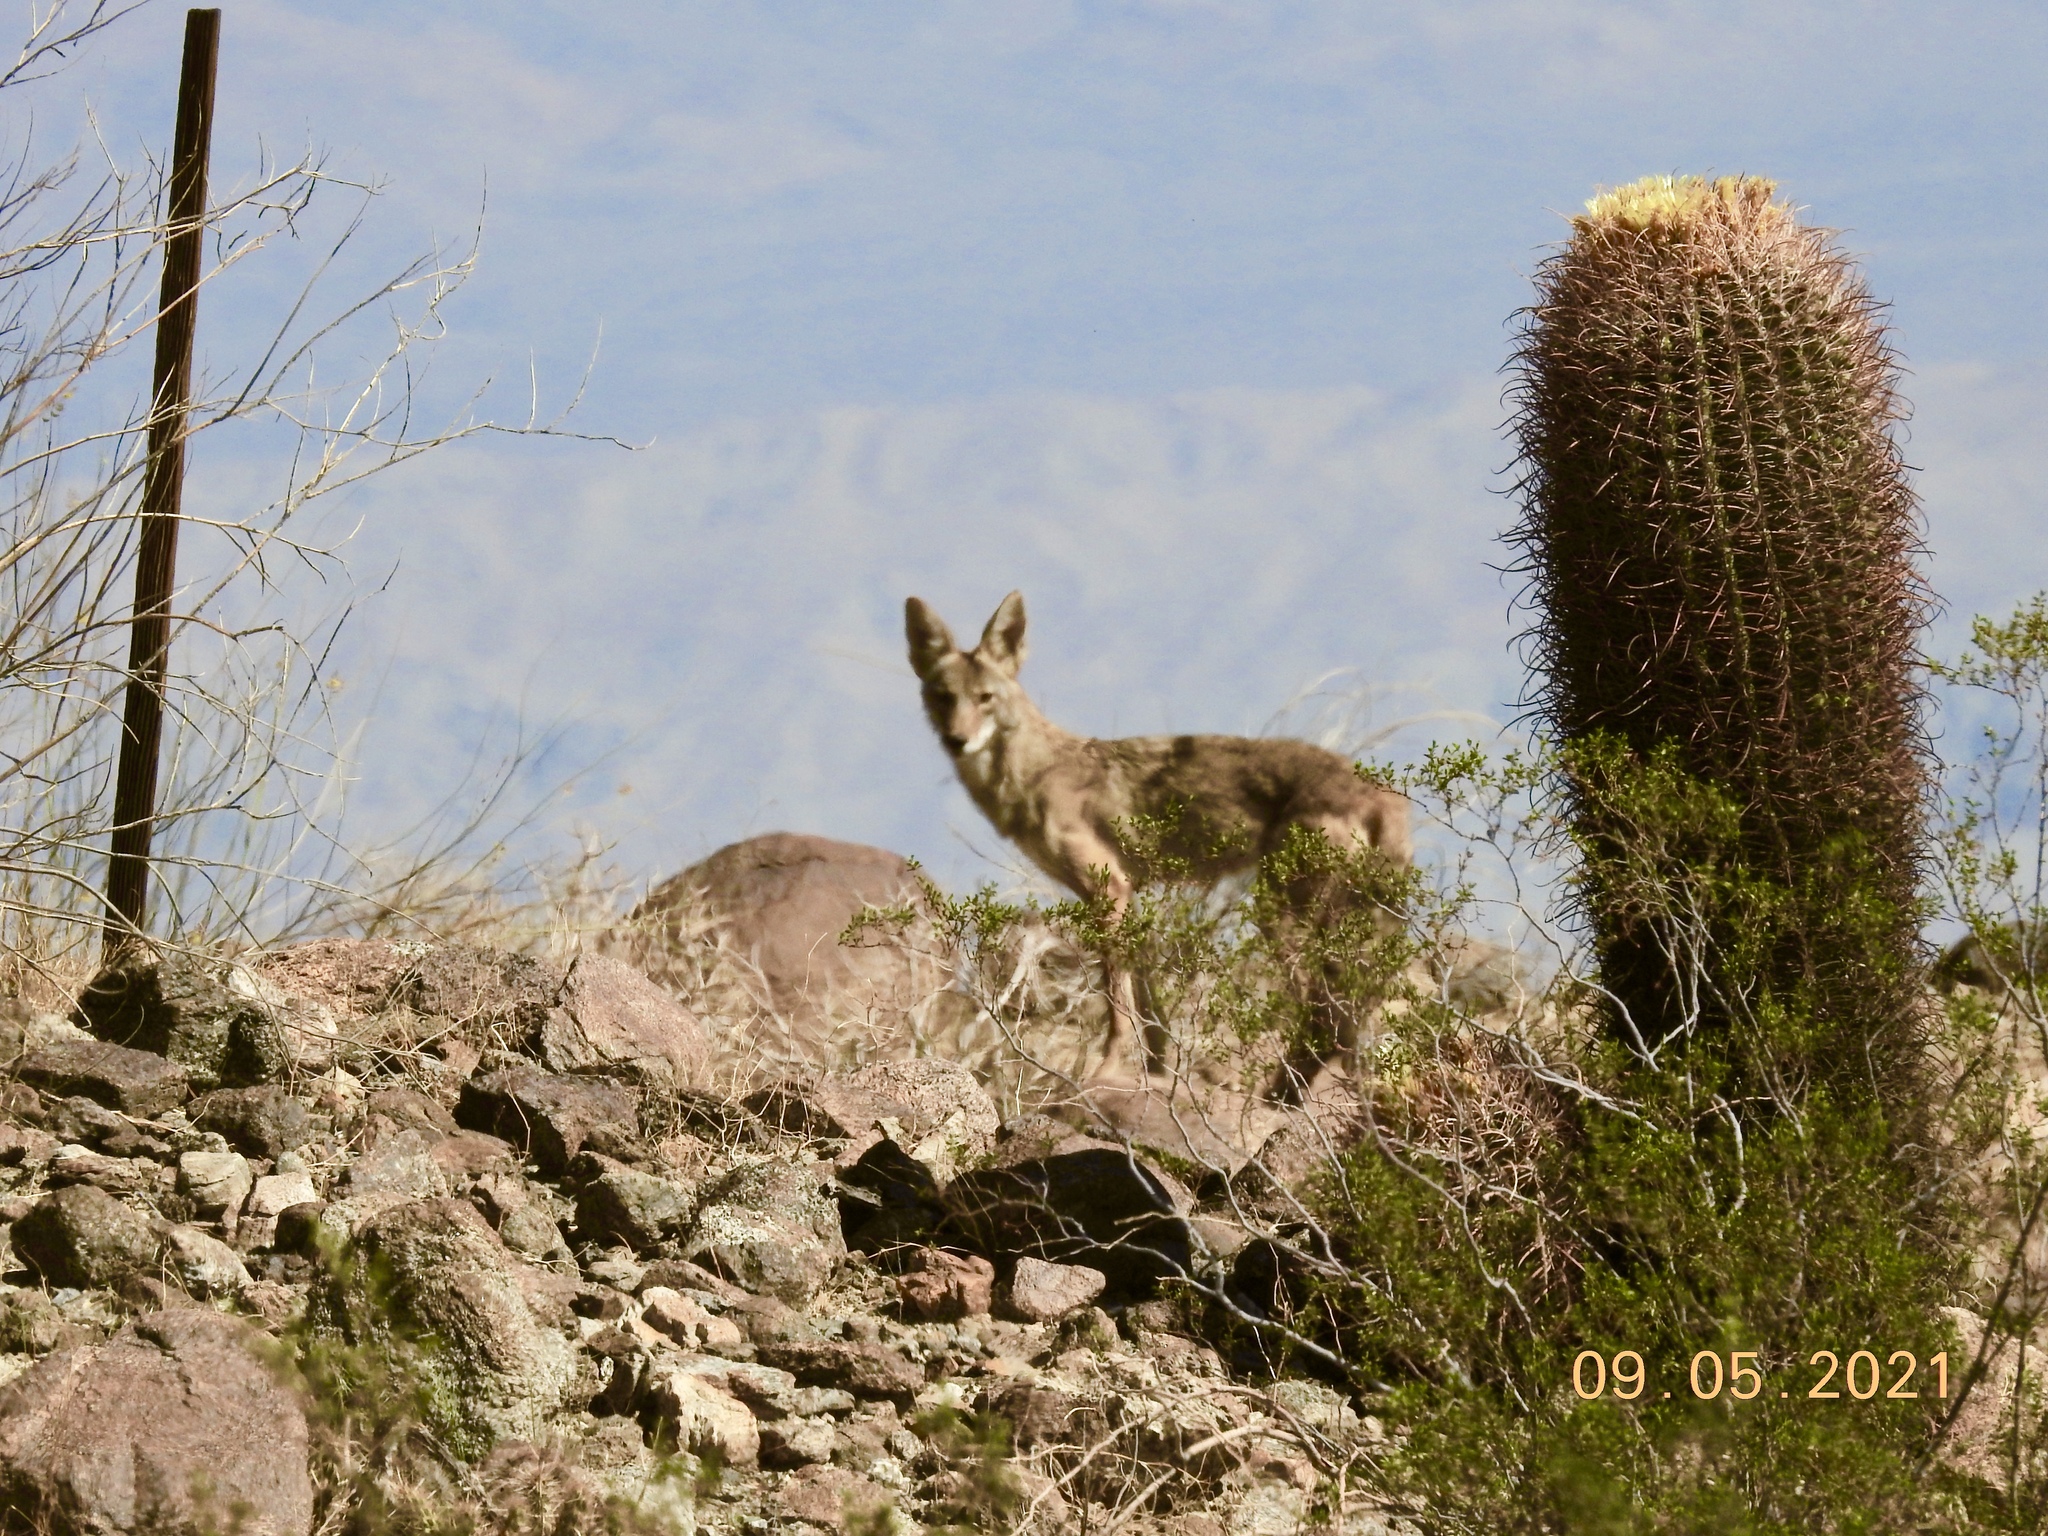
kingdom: Animalia
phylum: Chordata
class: Mammalia
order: Carnivora
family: Canidae
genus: Canis
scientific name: Canis latrans
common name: Coyote
